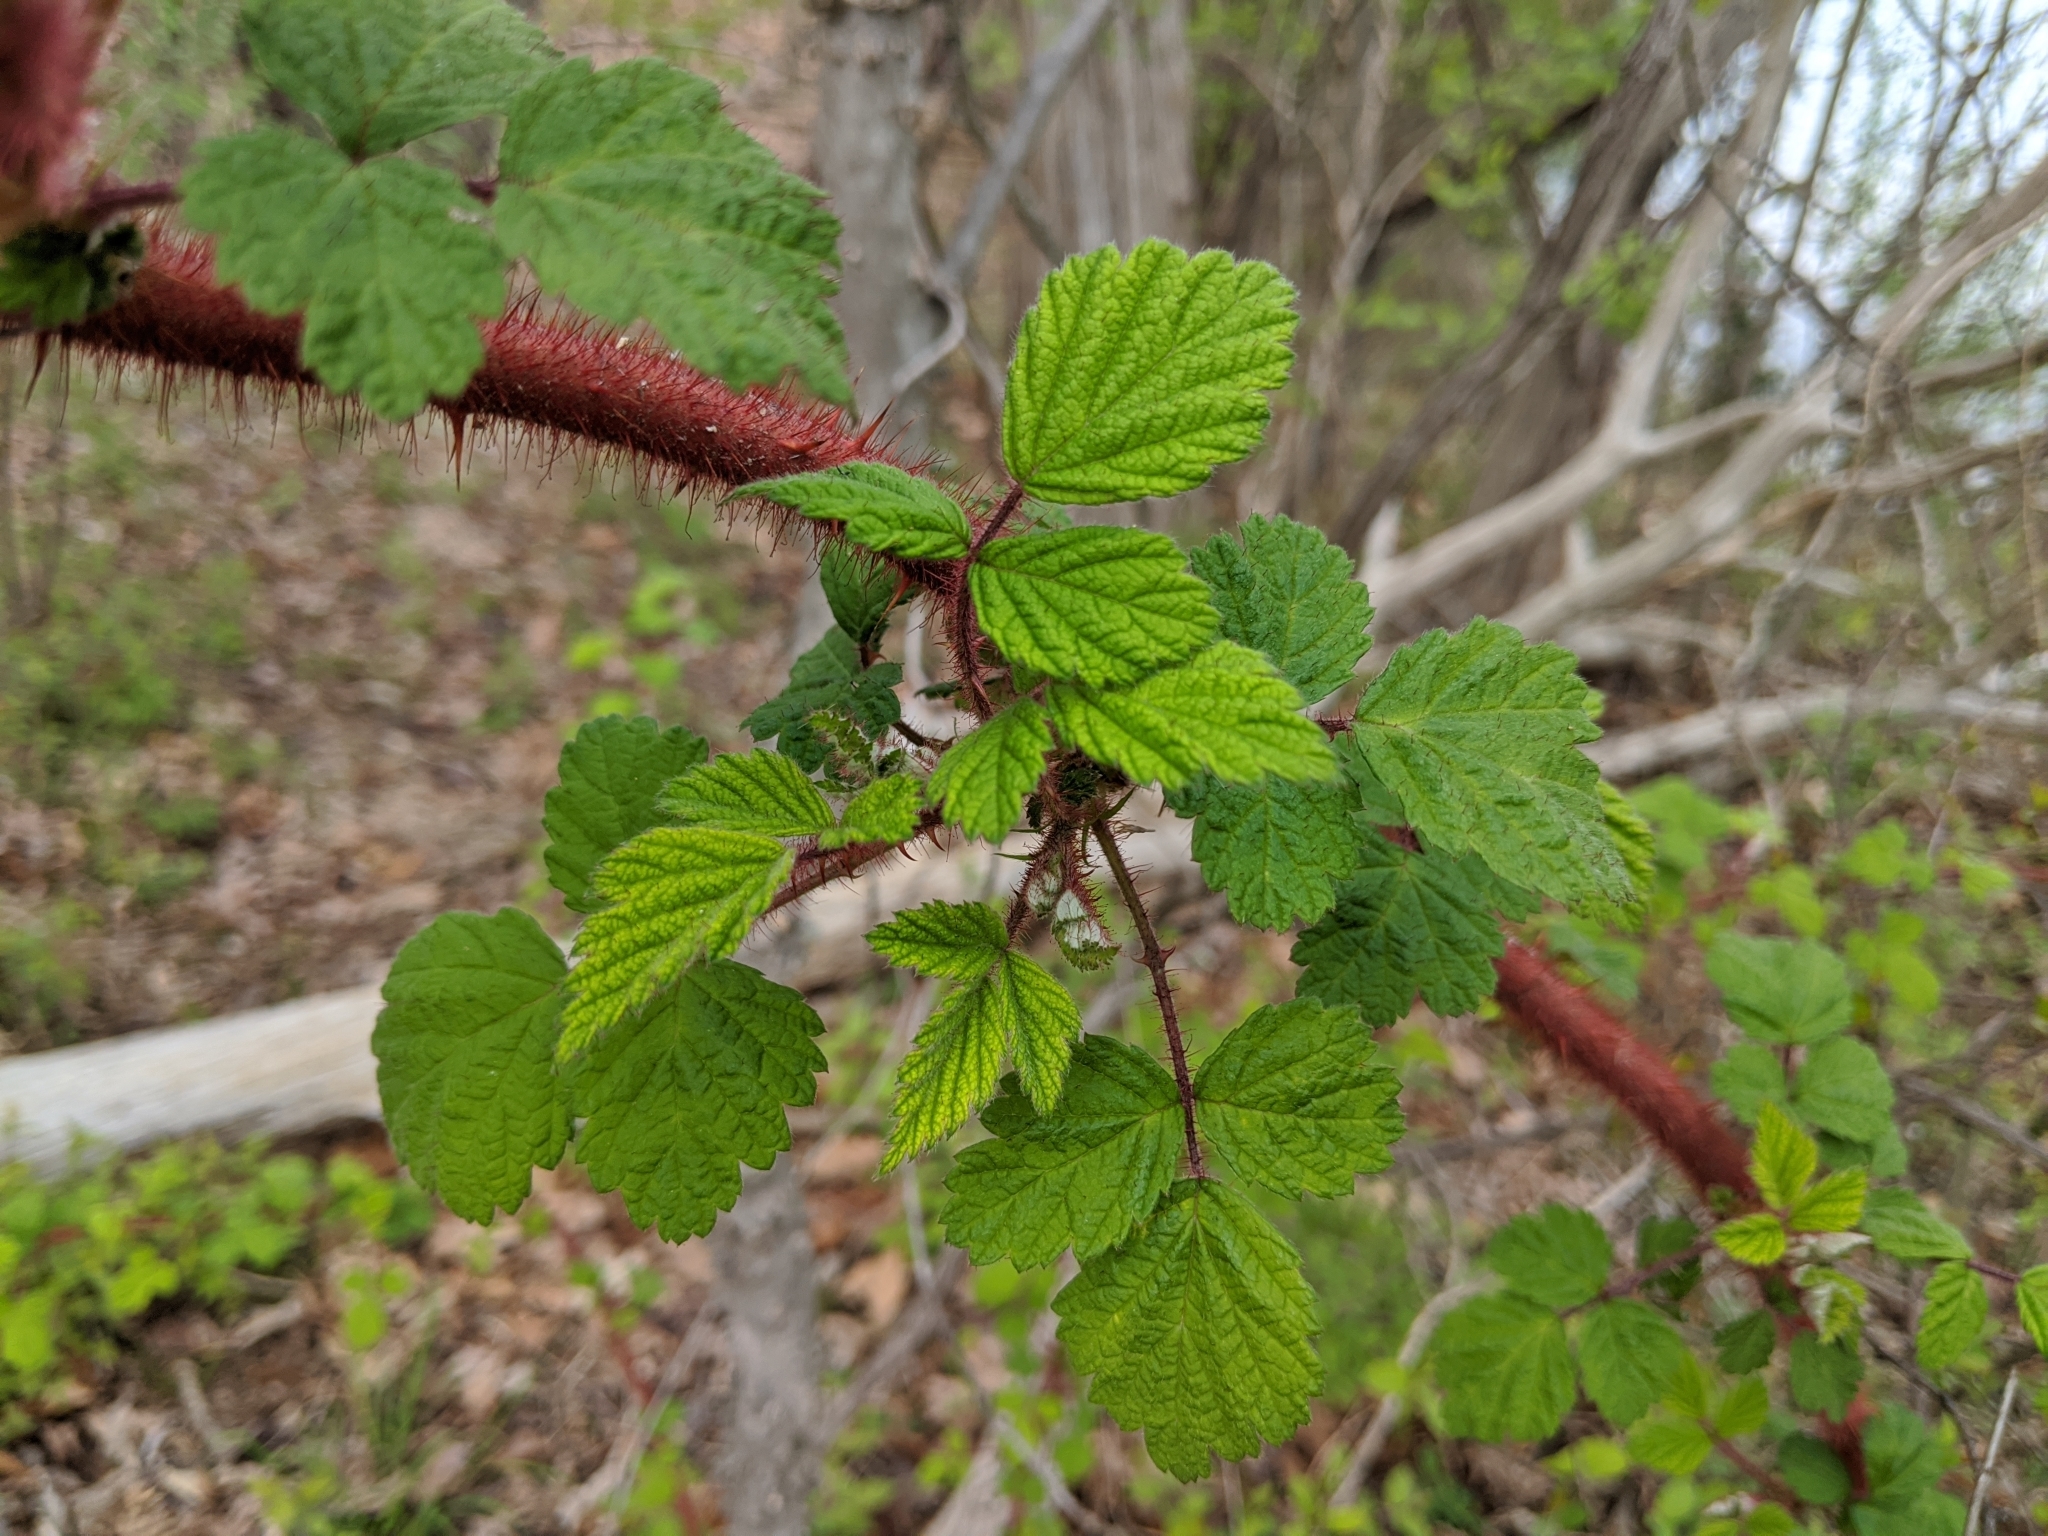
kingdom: Plantae
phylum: Tracheophyta
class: Magnoliopsida
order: Rosales
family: Rosaceae
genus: Rubus
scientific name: Rubus phoenicolasius
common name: Japanese wineberry
